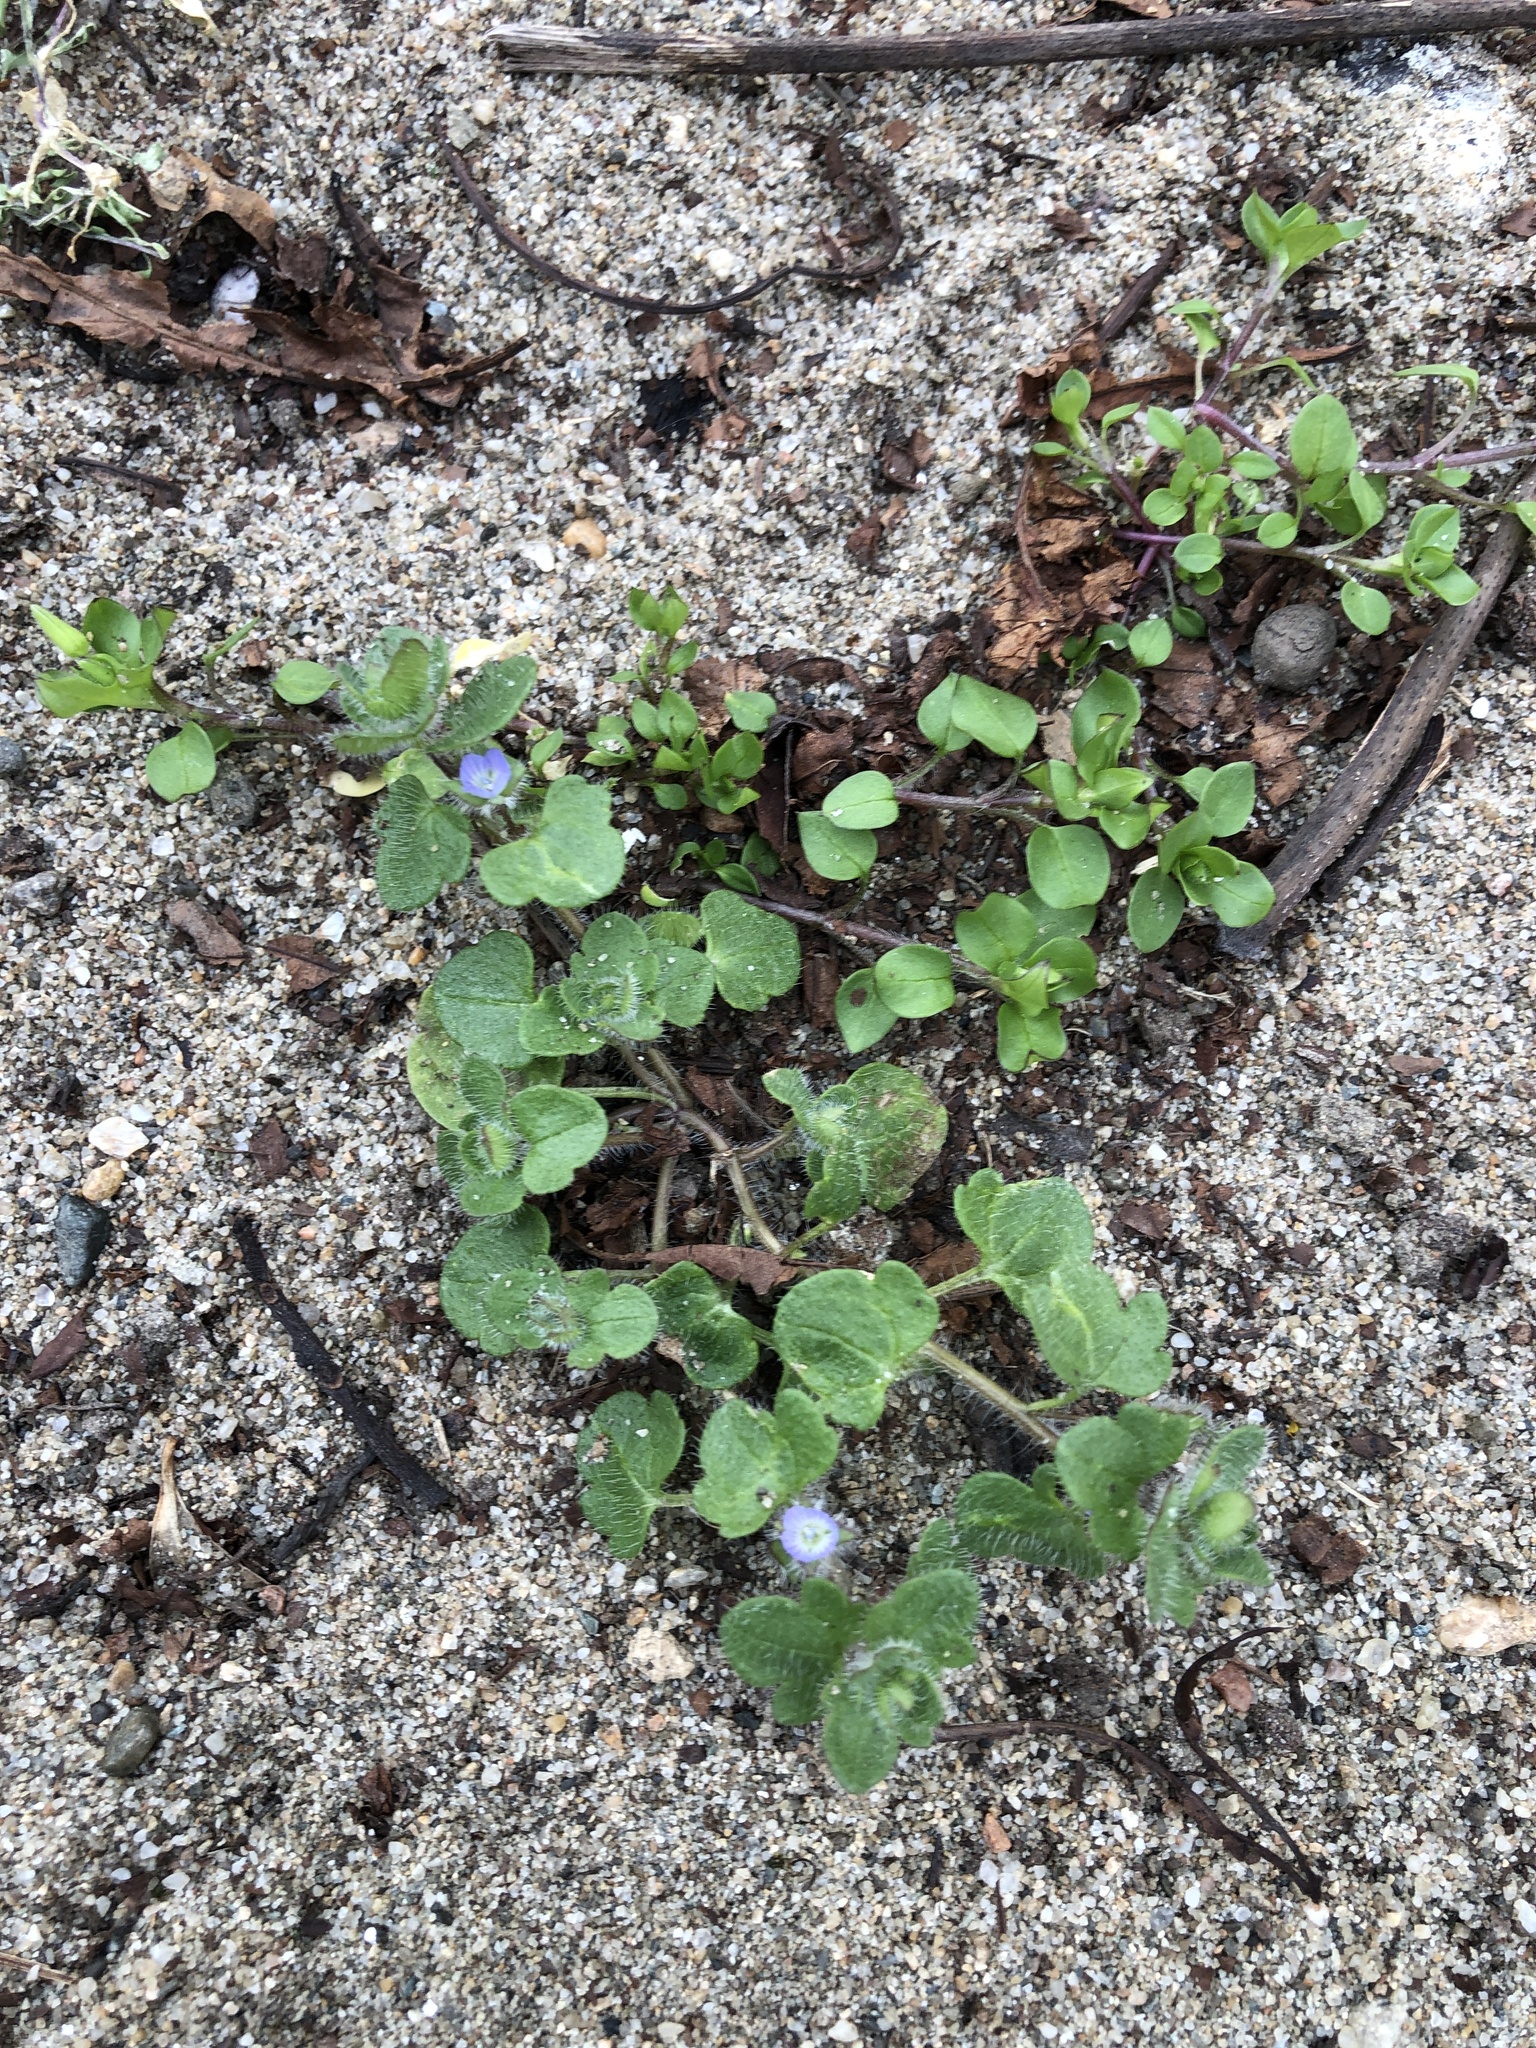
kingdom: Plantae
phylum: Tracheophyta
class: Magnoliopsida
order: Lamiales
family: Plantaginaceae
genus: Veronica
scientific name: Veronica hederifolia
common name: Ivy-leaved speedwell
